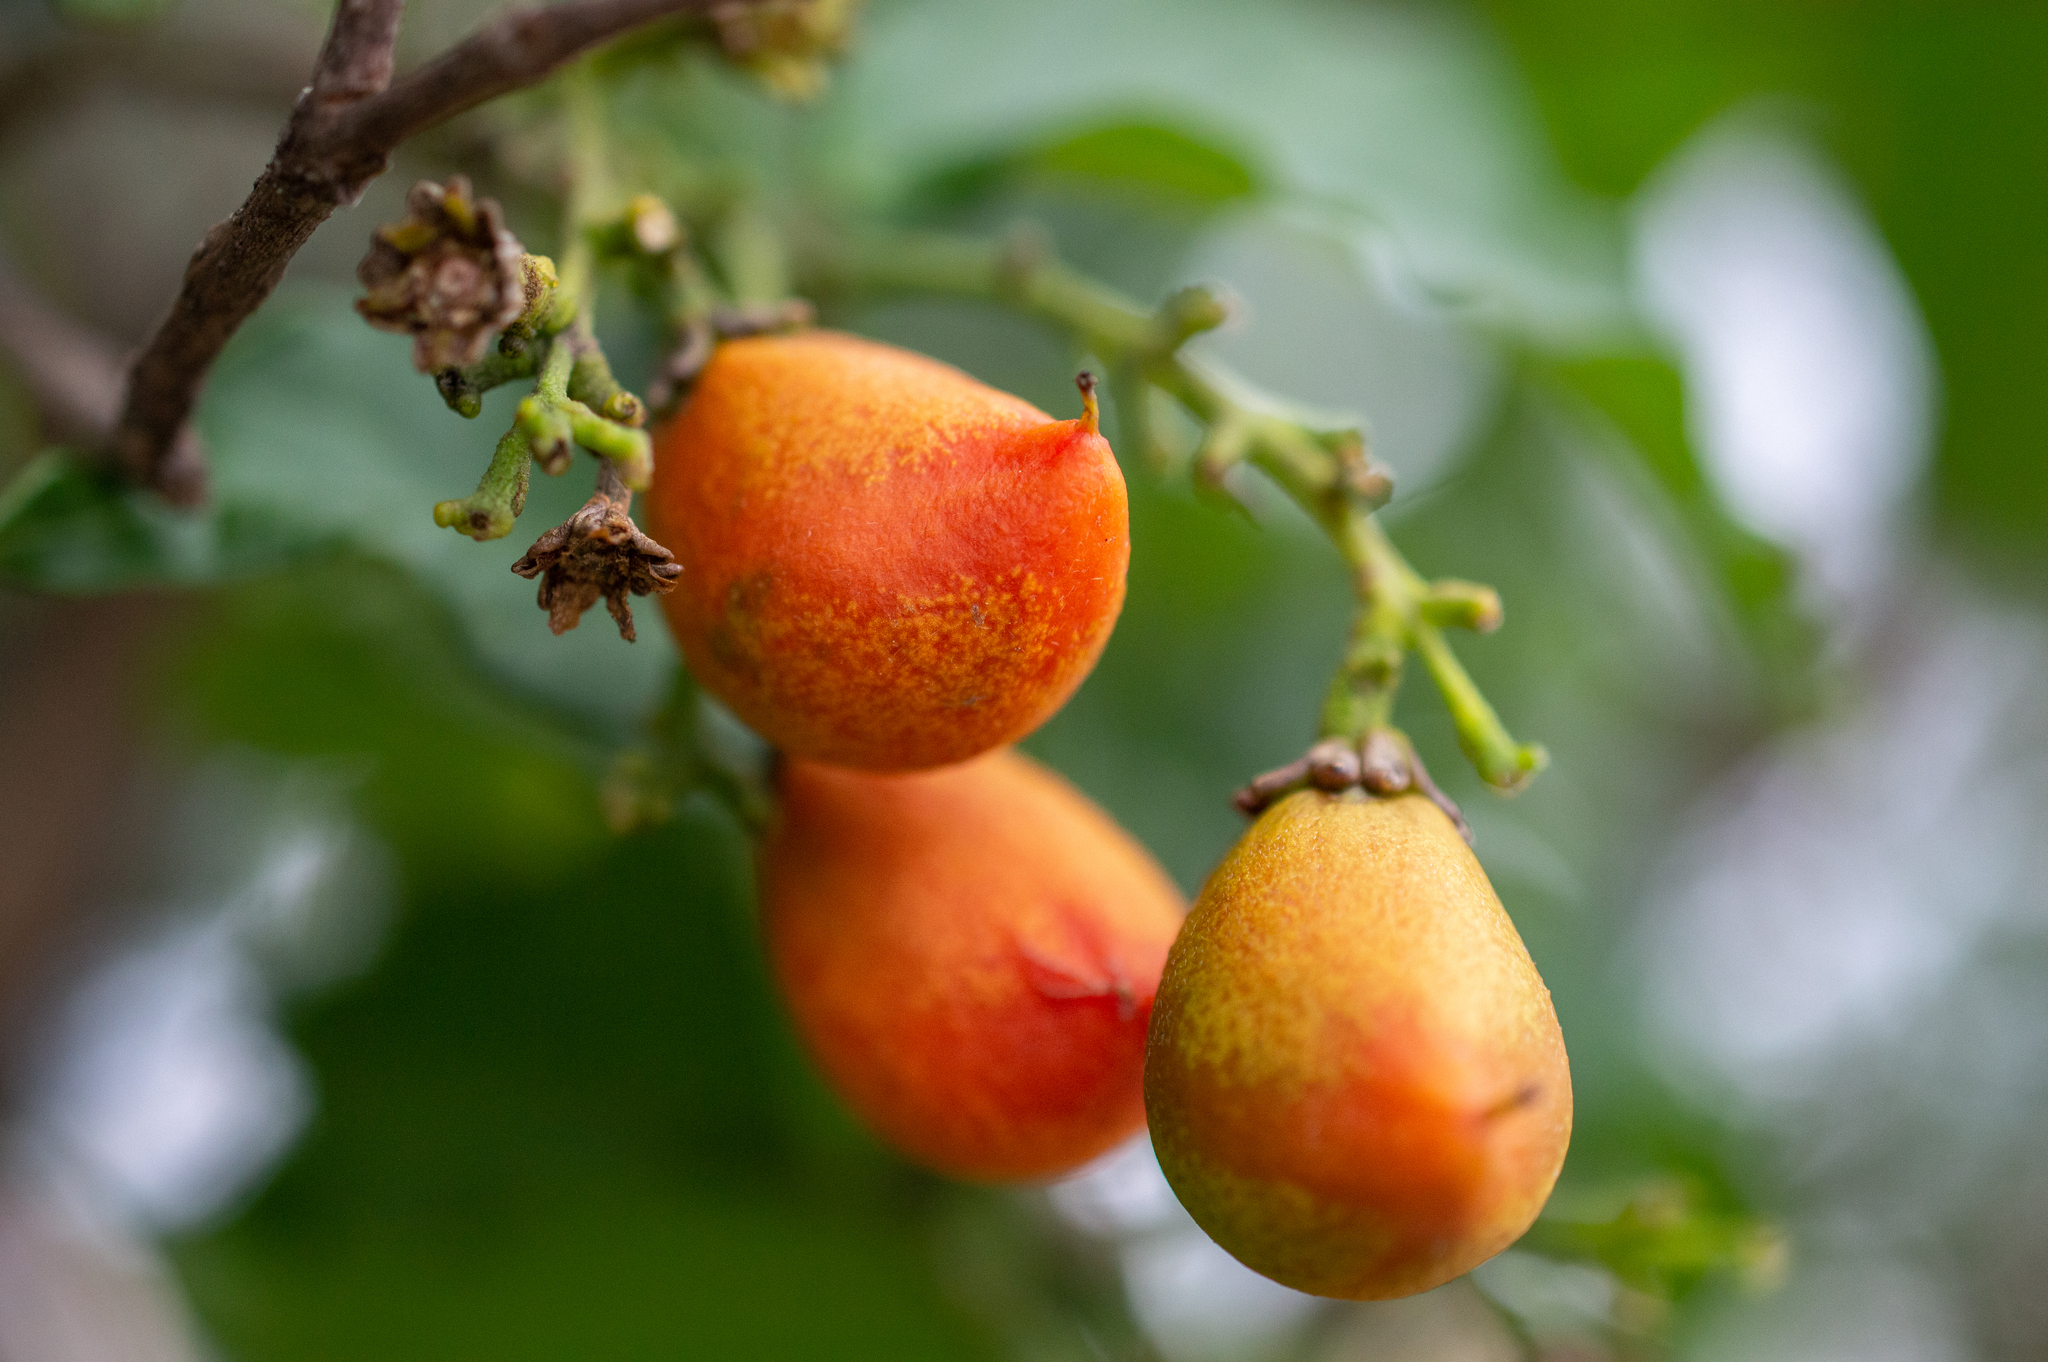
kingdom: Plantae
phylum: Tracheophyta
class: Magnoliopsida
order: Malpighiales
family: Malpighiaceae
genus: Bunchosia
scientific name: Bunchosia glandulifera
